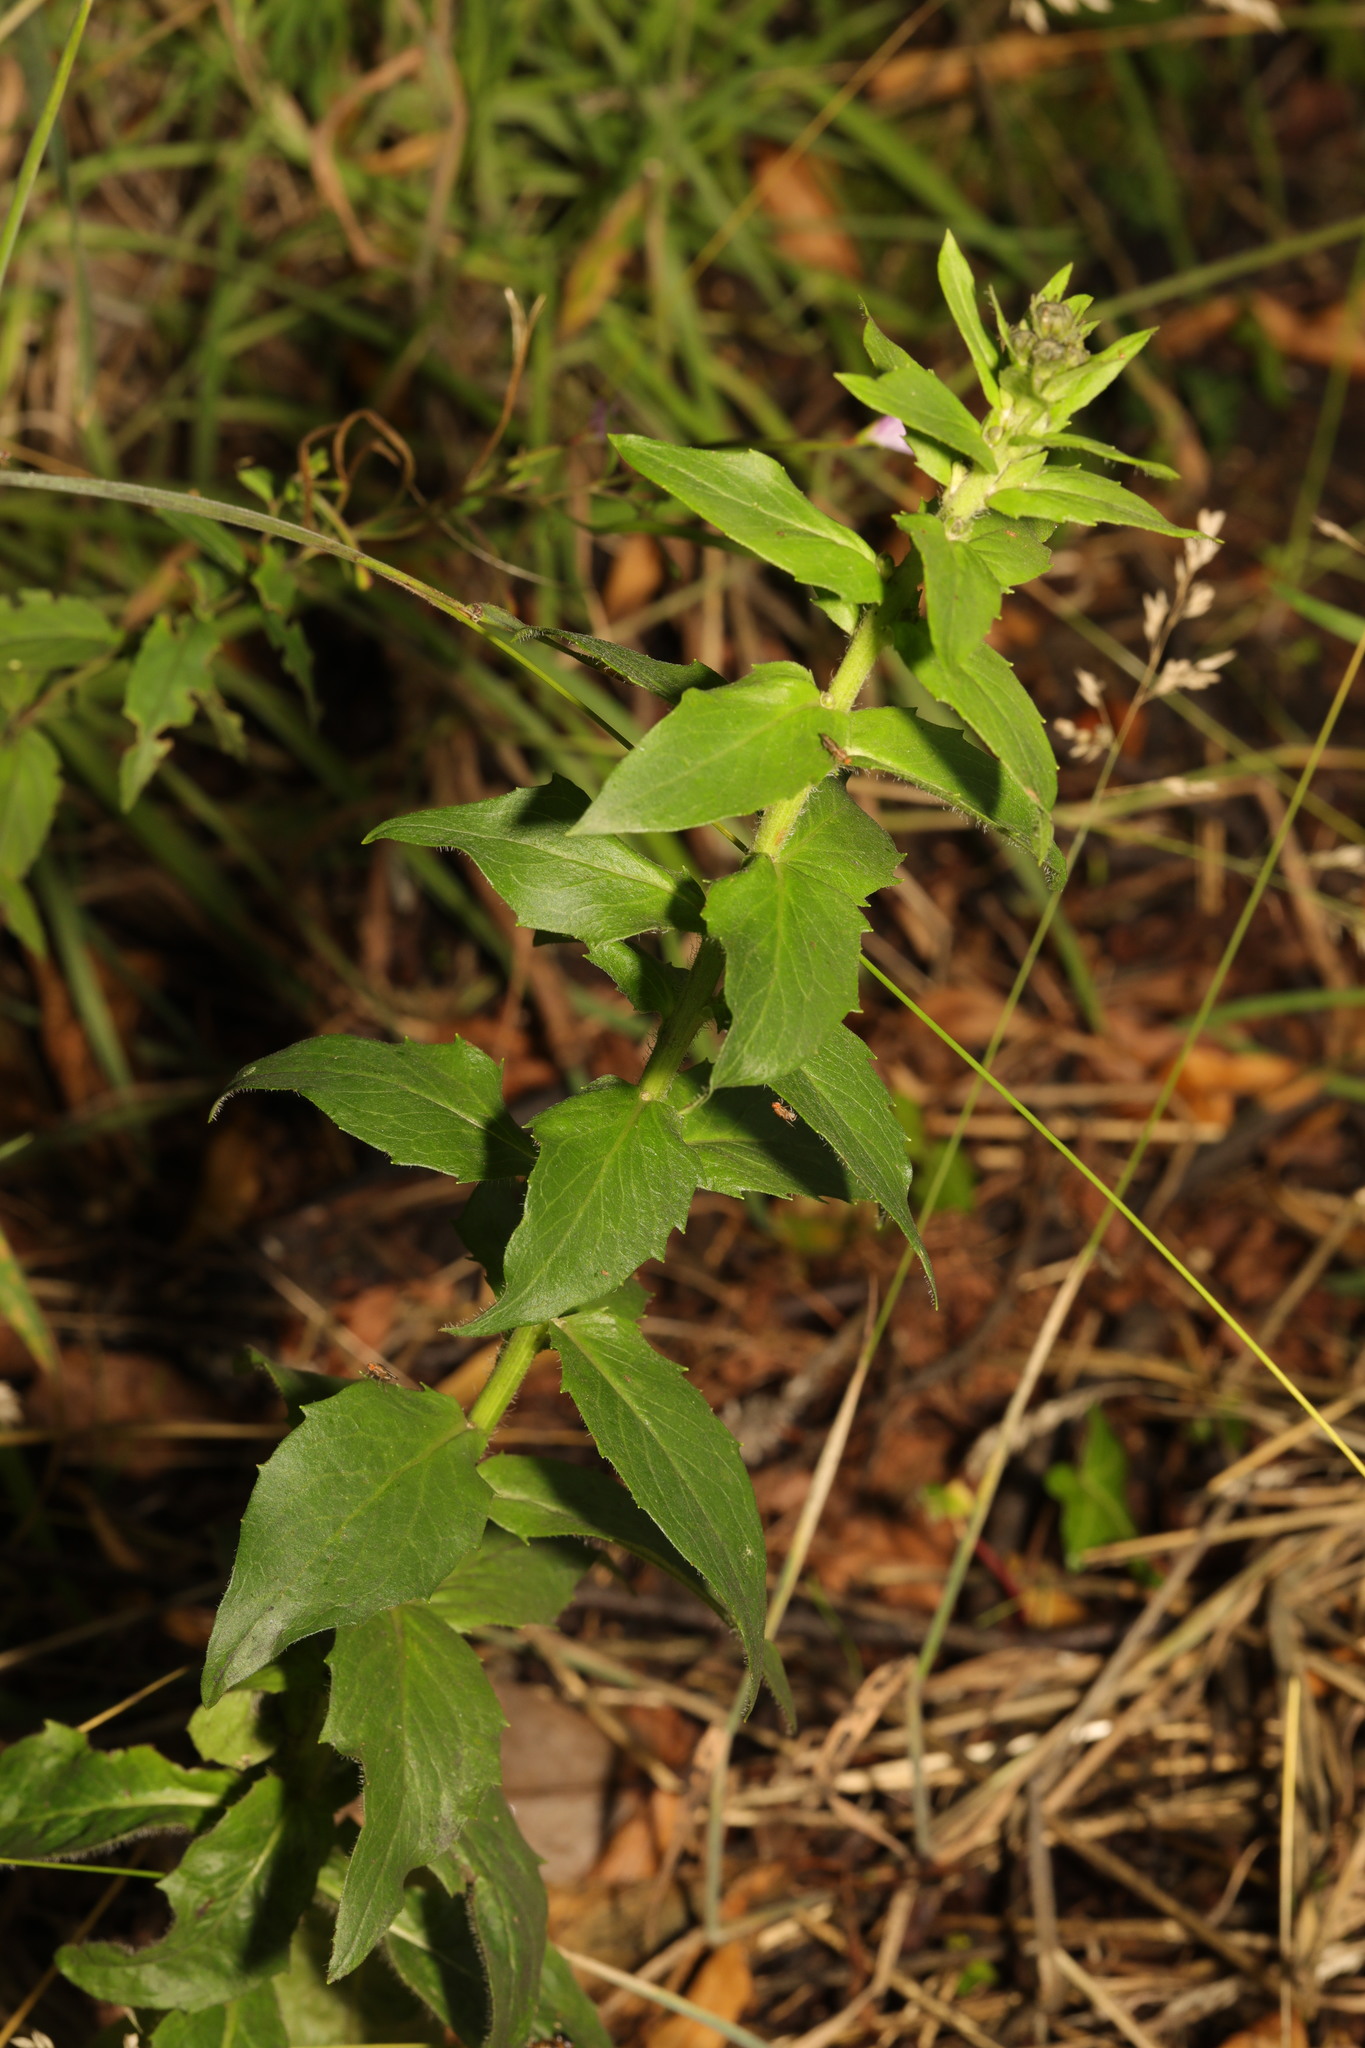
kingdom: Plantae
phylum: Tracheophyta
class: Magnoliopsida
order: Asterales
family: Asteraceae
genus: Hieracium
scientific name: Hieracium sabaudum
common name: New england hawkweed
